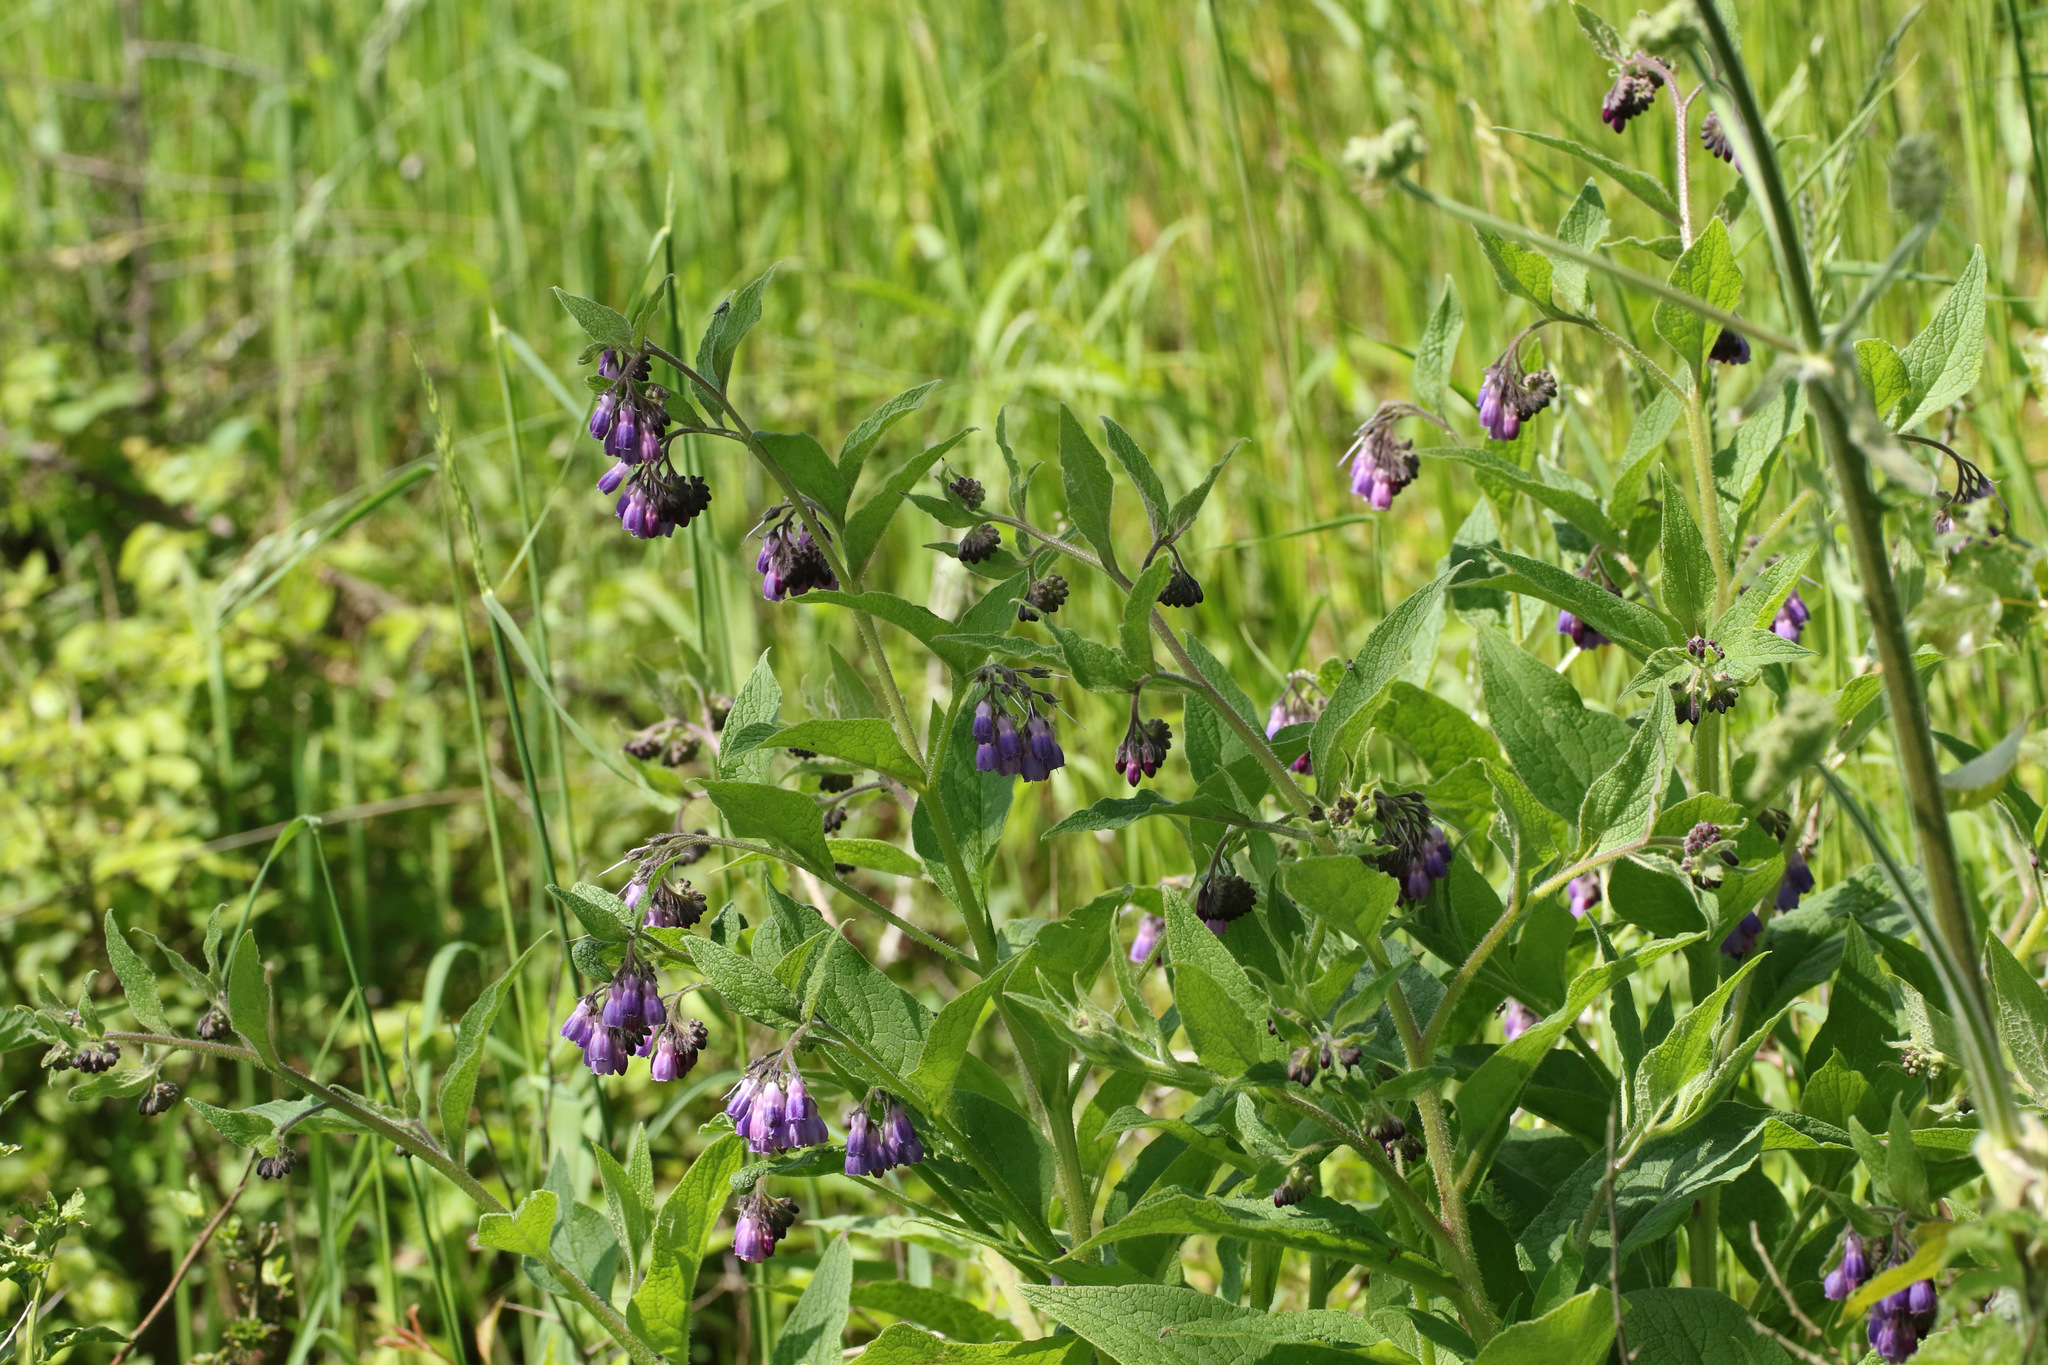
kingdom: Plantae
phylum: Tracheophyta
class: Magnoliopsida
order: Boraginales
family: Boraginaceae
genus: Symphytum
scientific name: Symphytum uplandicum
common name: Russian comfrey
